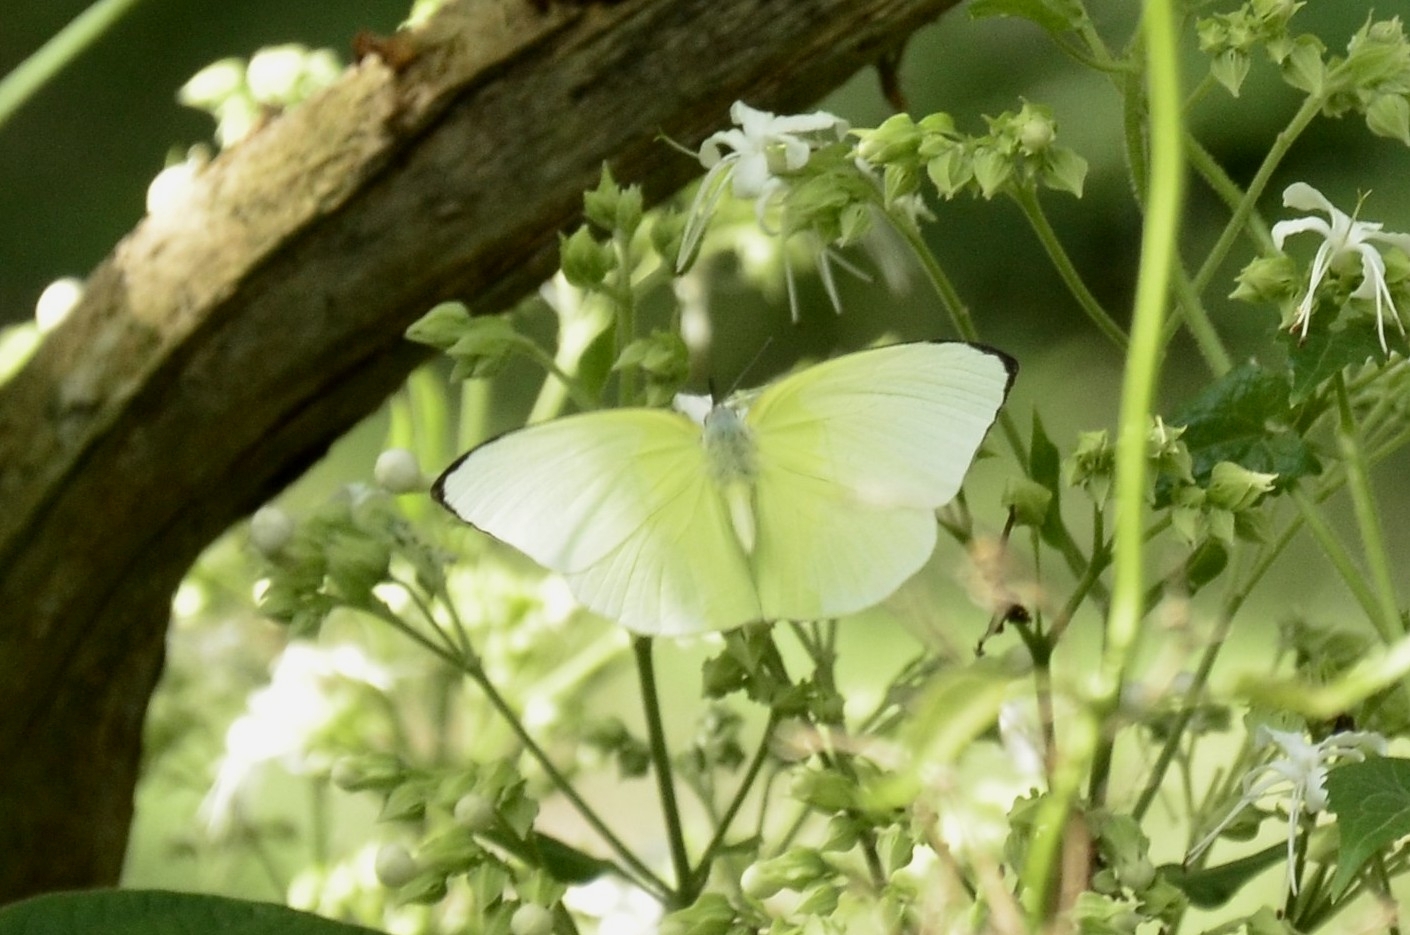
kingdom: Animalia
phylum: Arthropoda
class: Insecta
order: Lepidoptera
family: Pieridae
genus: Catopsilia
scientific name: Catopsilia pomona
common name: Common emigrant
